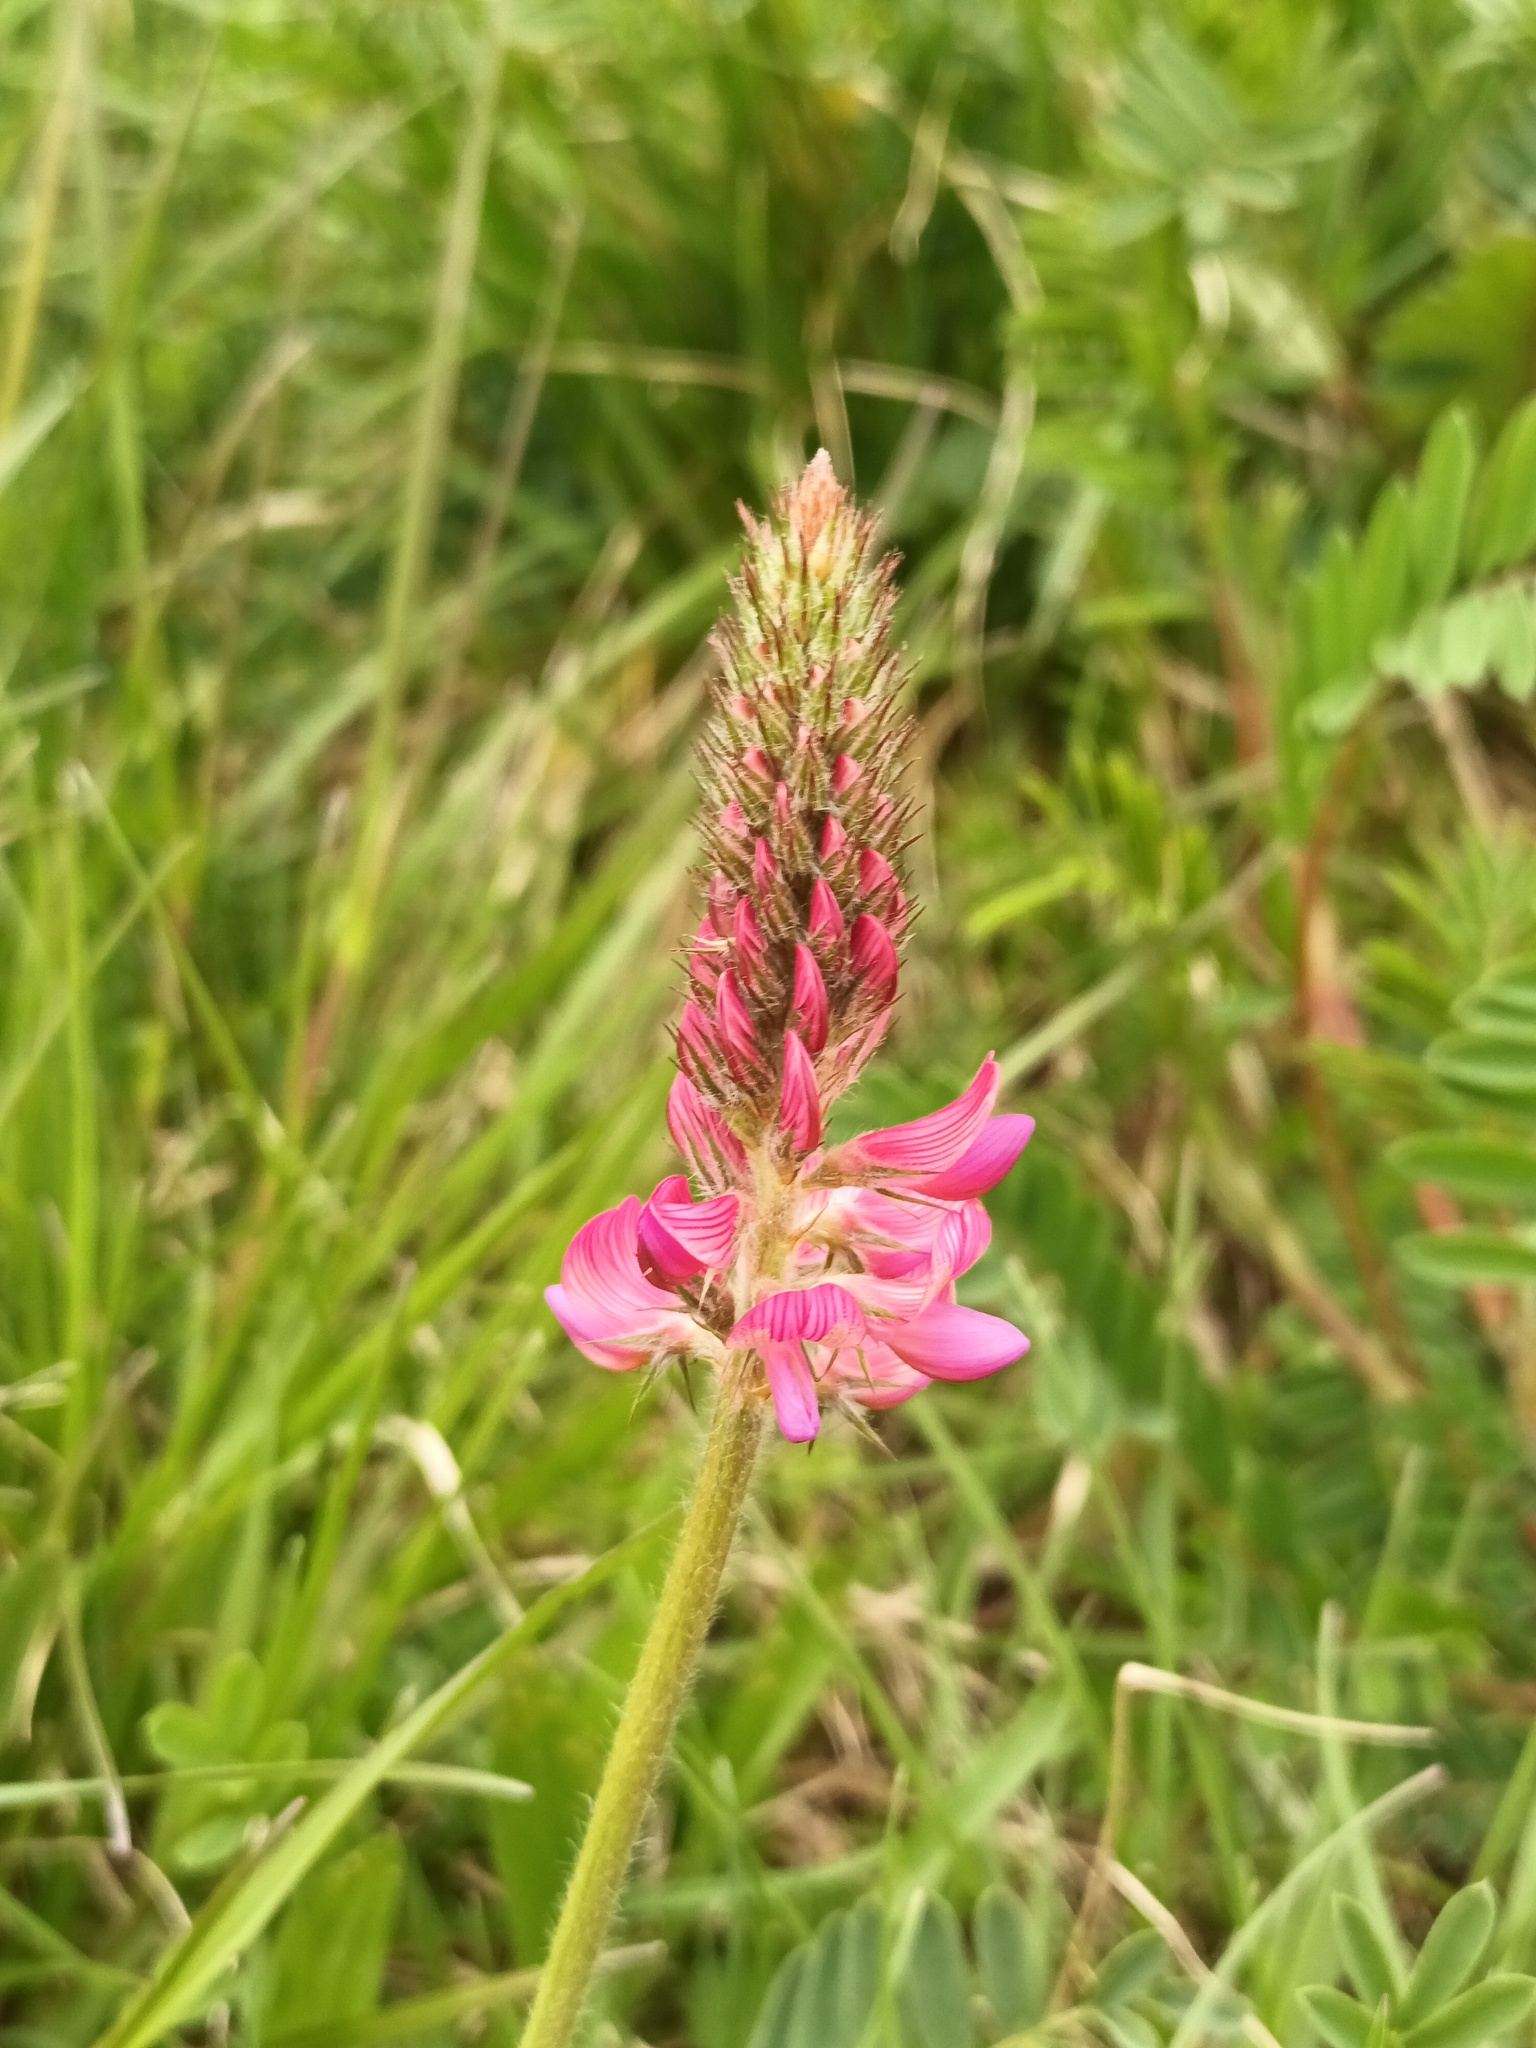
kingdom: Plantae
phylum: Tracheophyta
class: Magnoliopsida
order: Fabales
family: Fabaceae
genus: Onobrychis
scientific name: Onobrychis viciifolia
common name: Sainfoin
